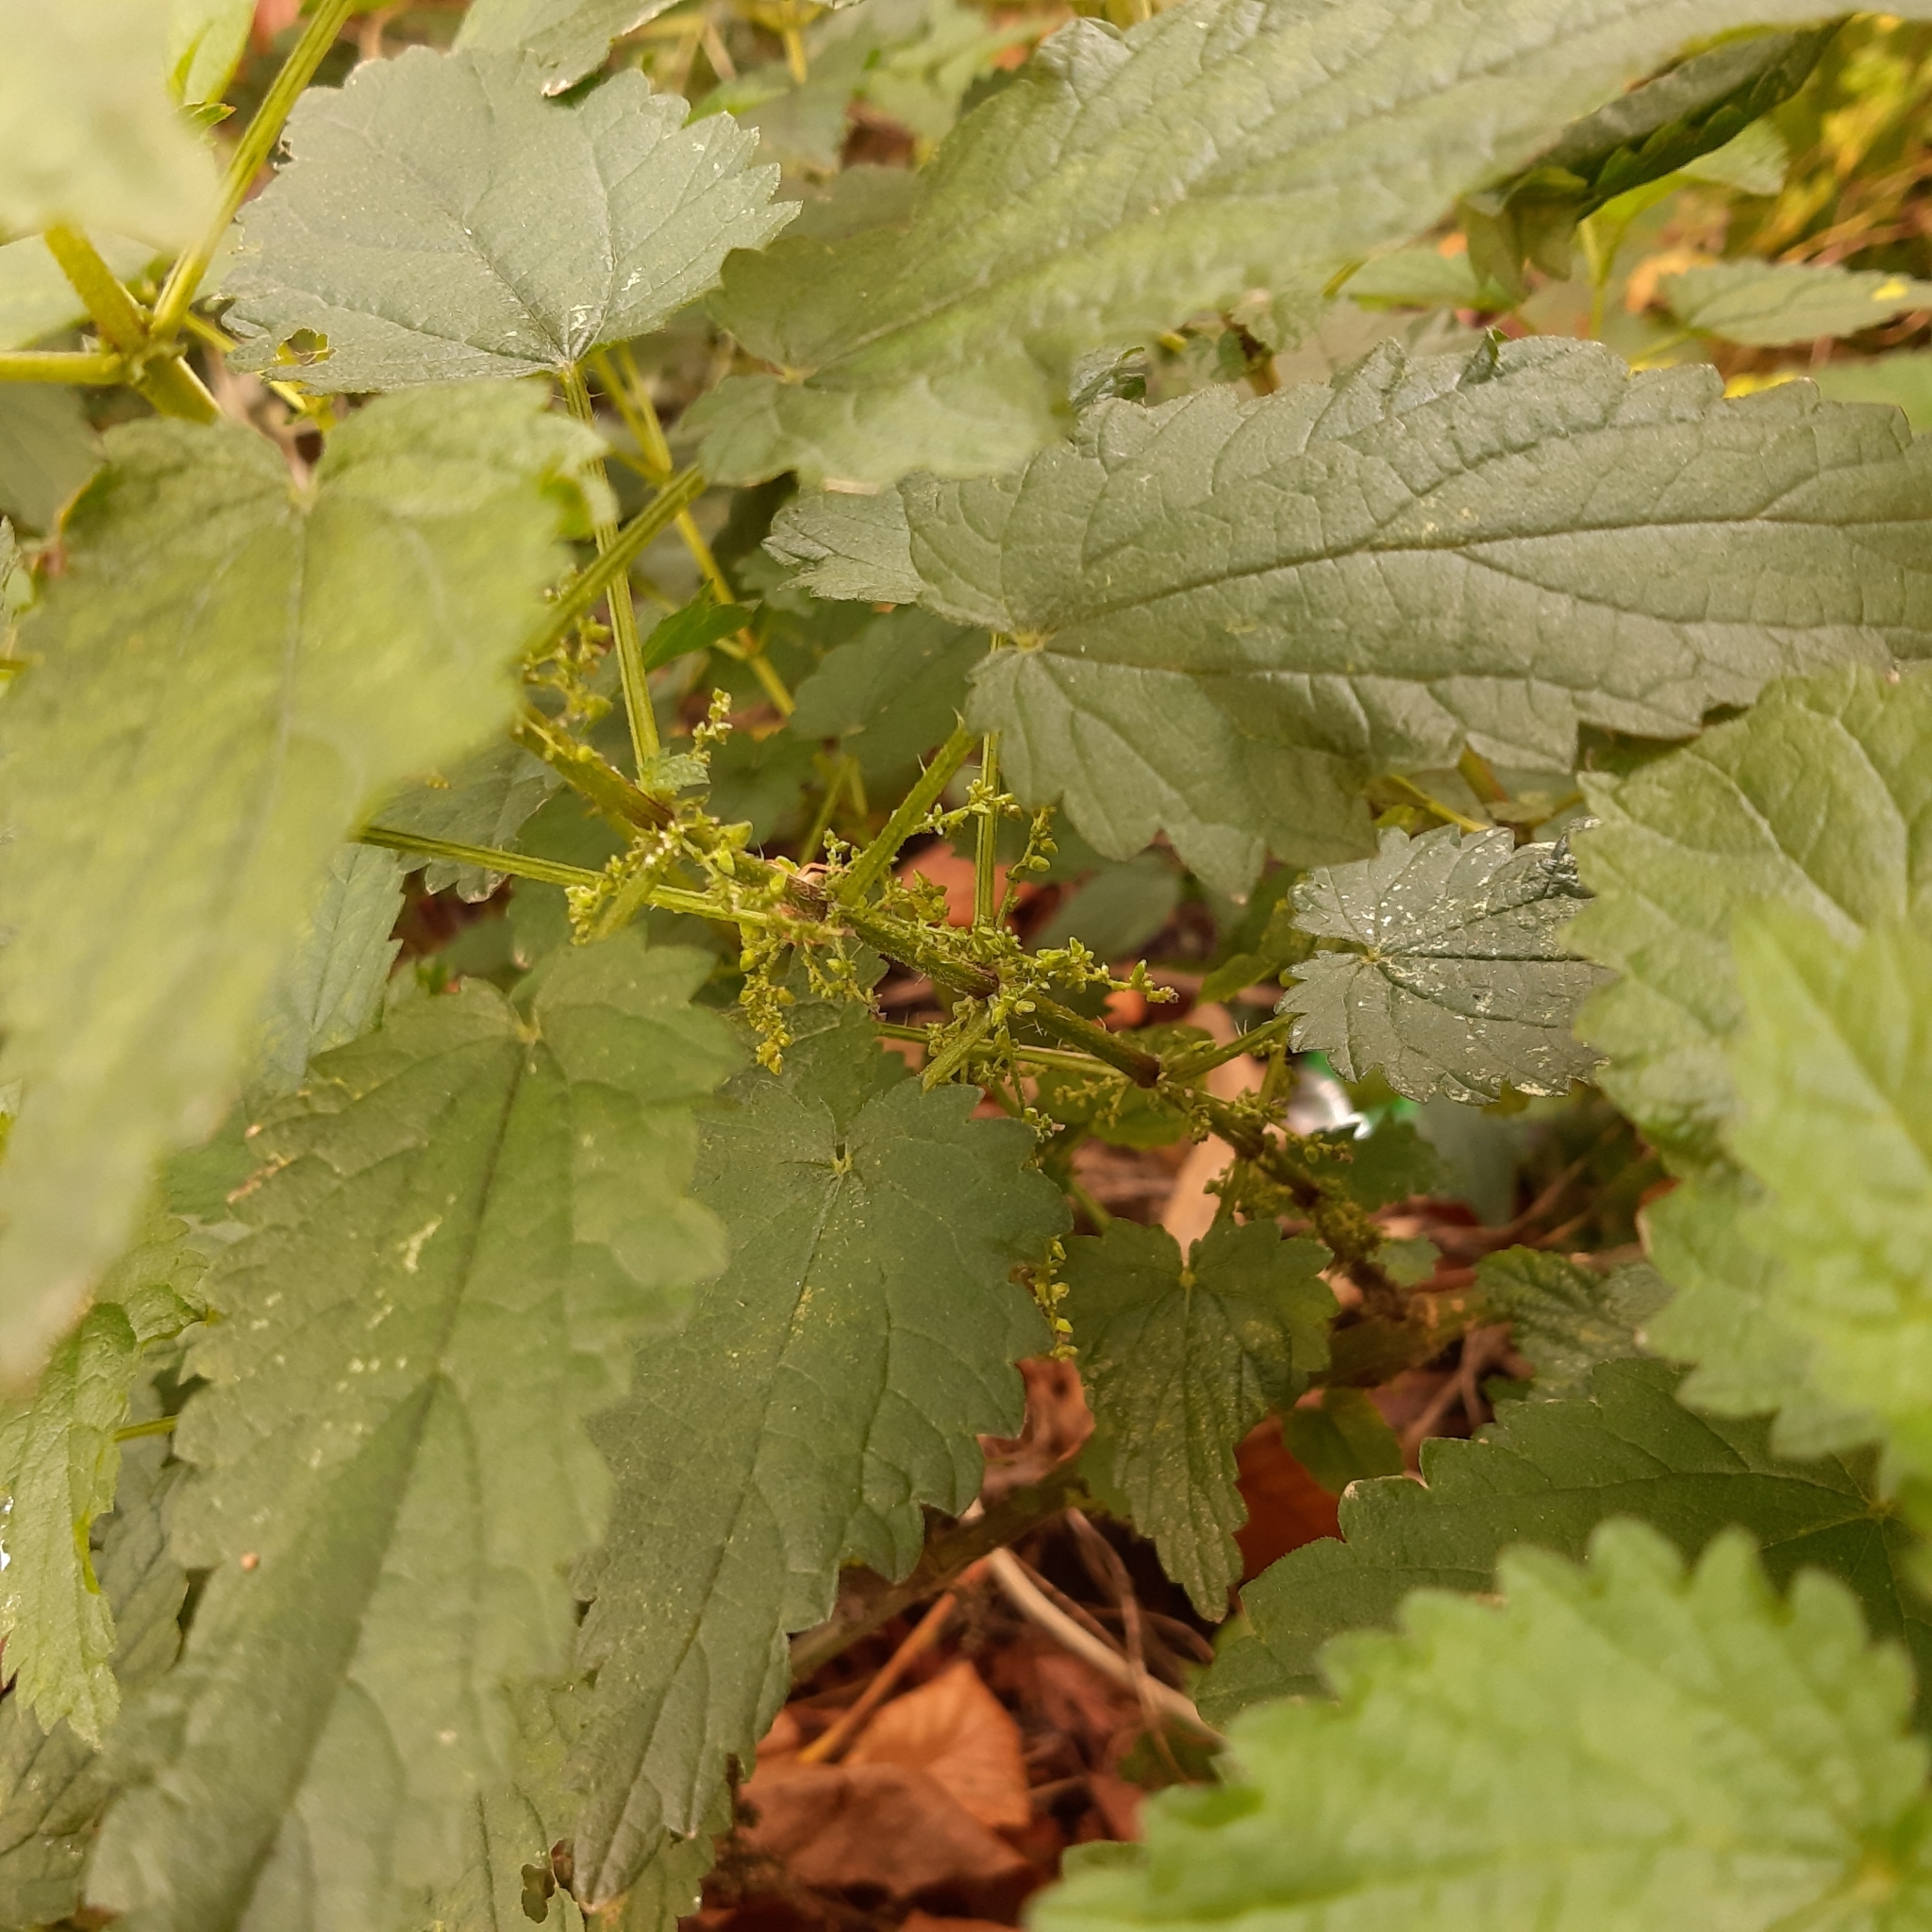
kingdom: Plantae
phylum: Tracheophyta
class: Magnoliopsida
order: Rosales
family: Urticaceae
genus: Urtica
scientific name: Urtica dioica
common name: Common nettle
